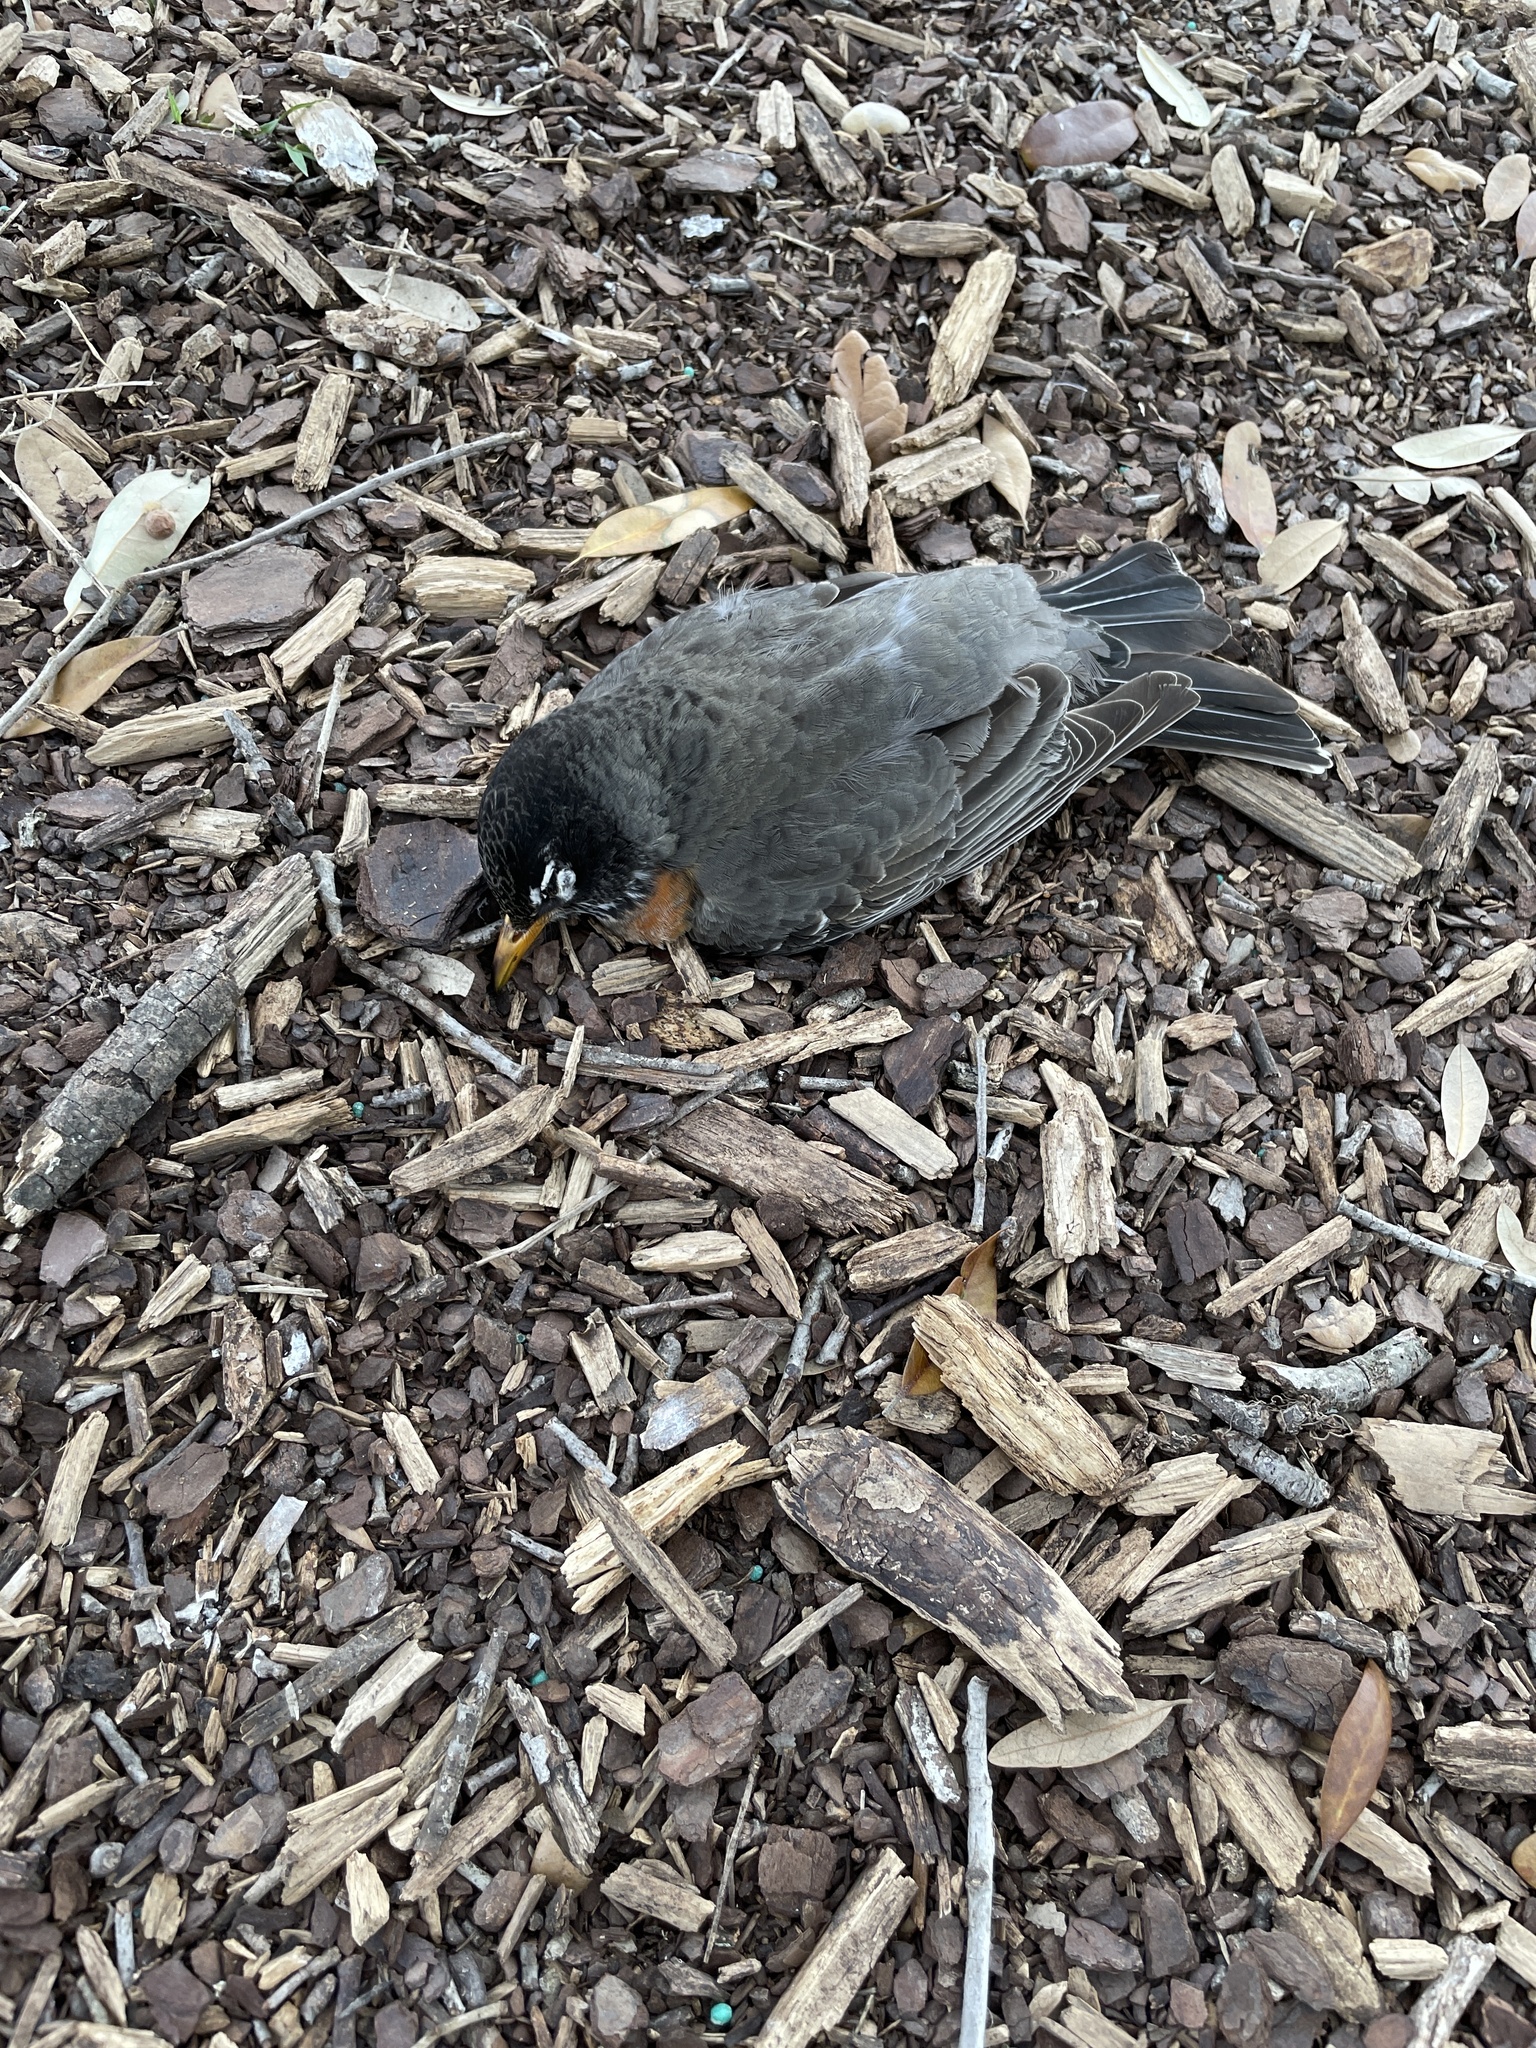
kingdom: Animalia
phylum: Chordata
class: Aves
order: Passeriformes
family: Turdidae
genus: Turdus
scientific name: Turdus migratorius
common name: American robin
